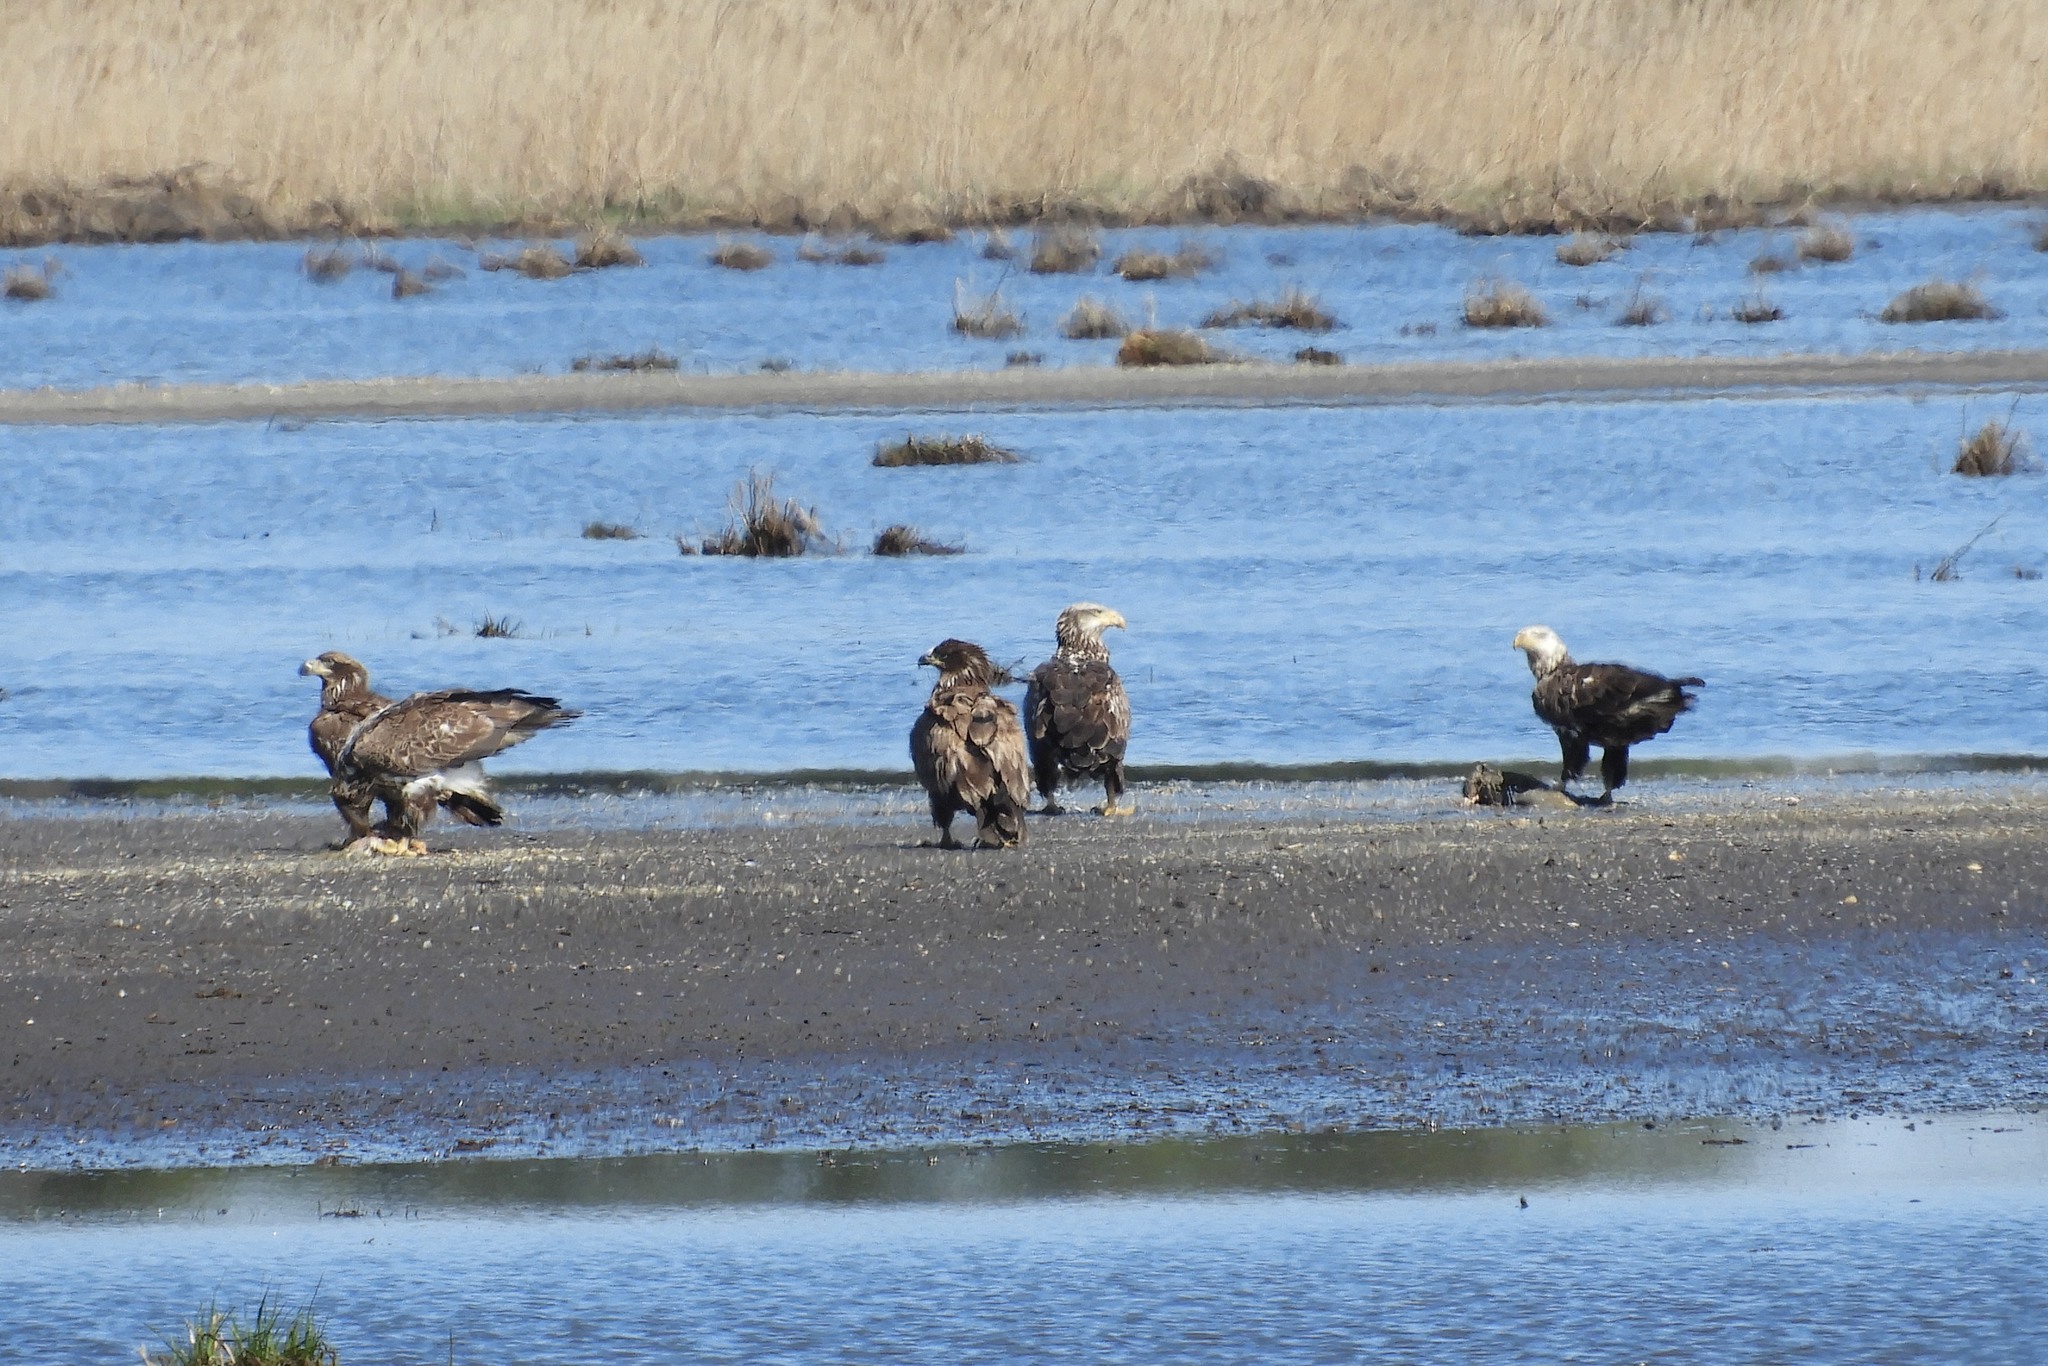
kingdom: Animalia
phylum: Chordata
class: Aves
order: Accipitriformes
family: Accipitridae
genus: Haliaeetus
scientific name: Haliaeetus leucocephalus
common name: Bald eagle
